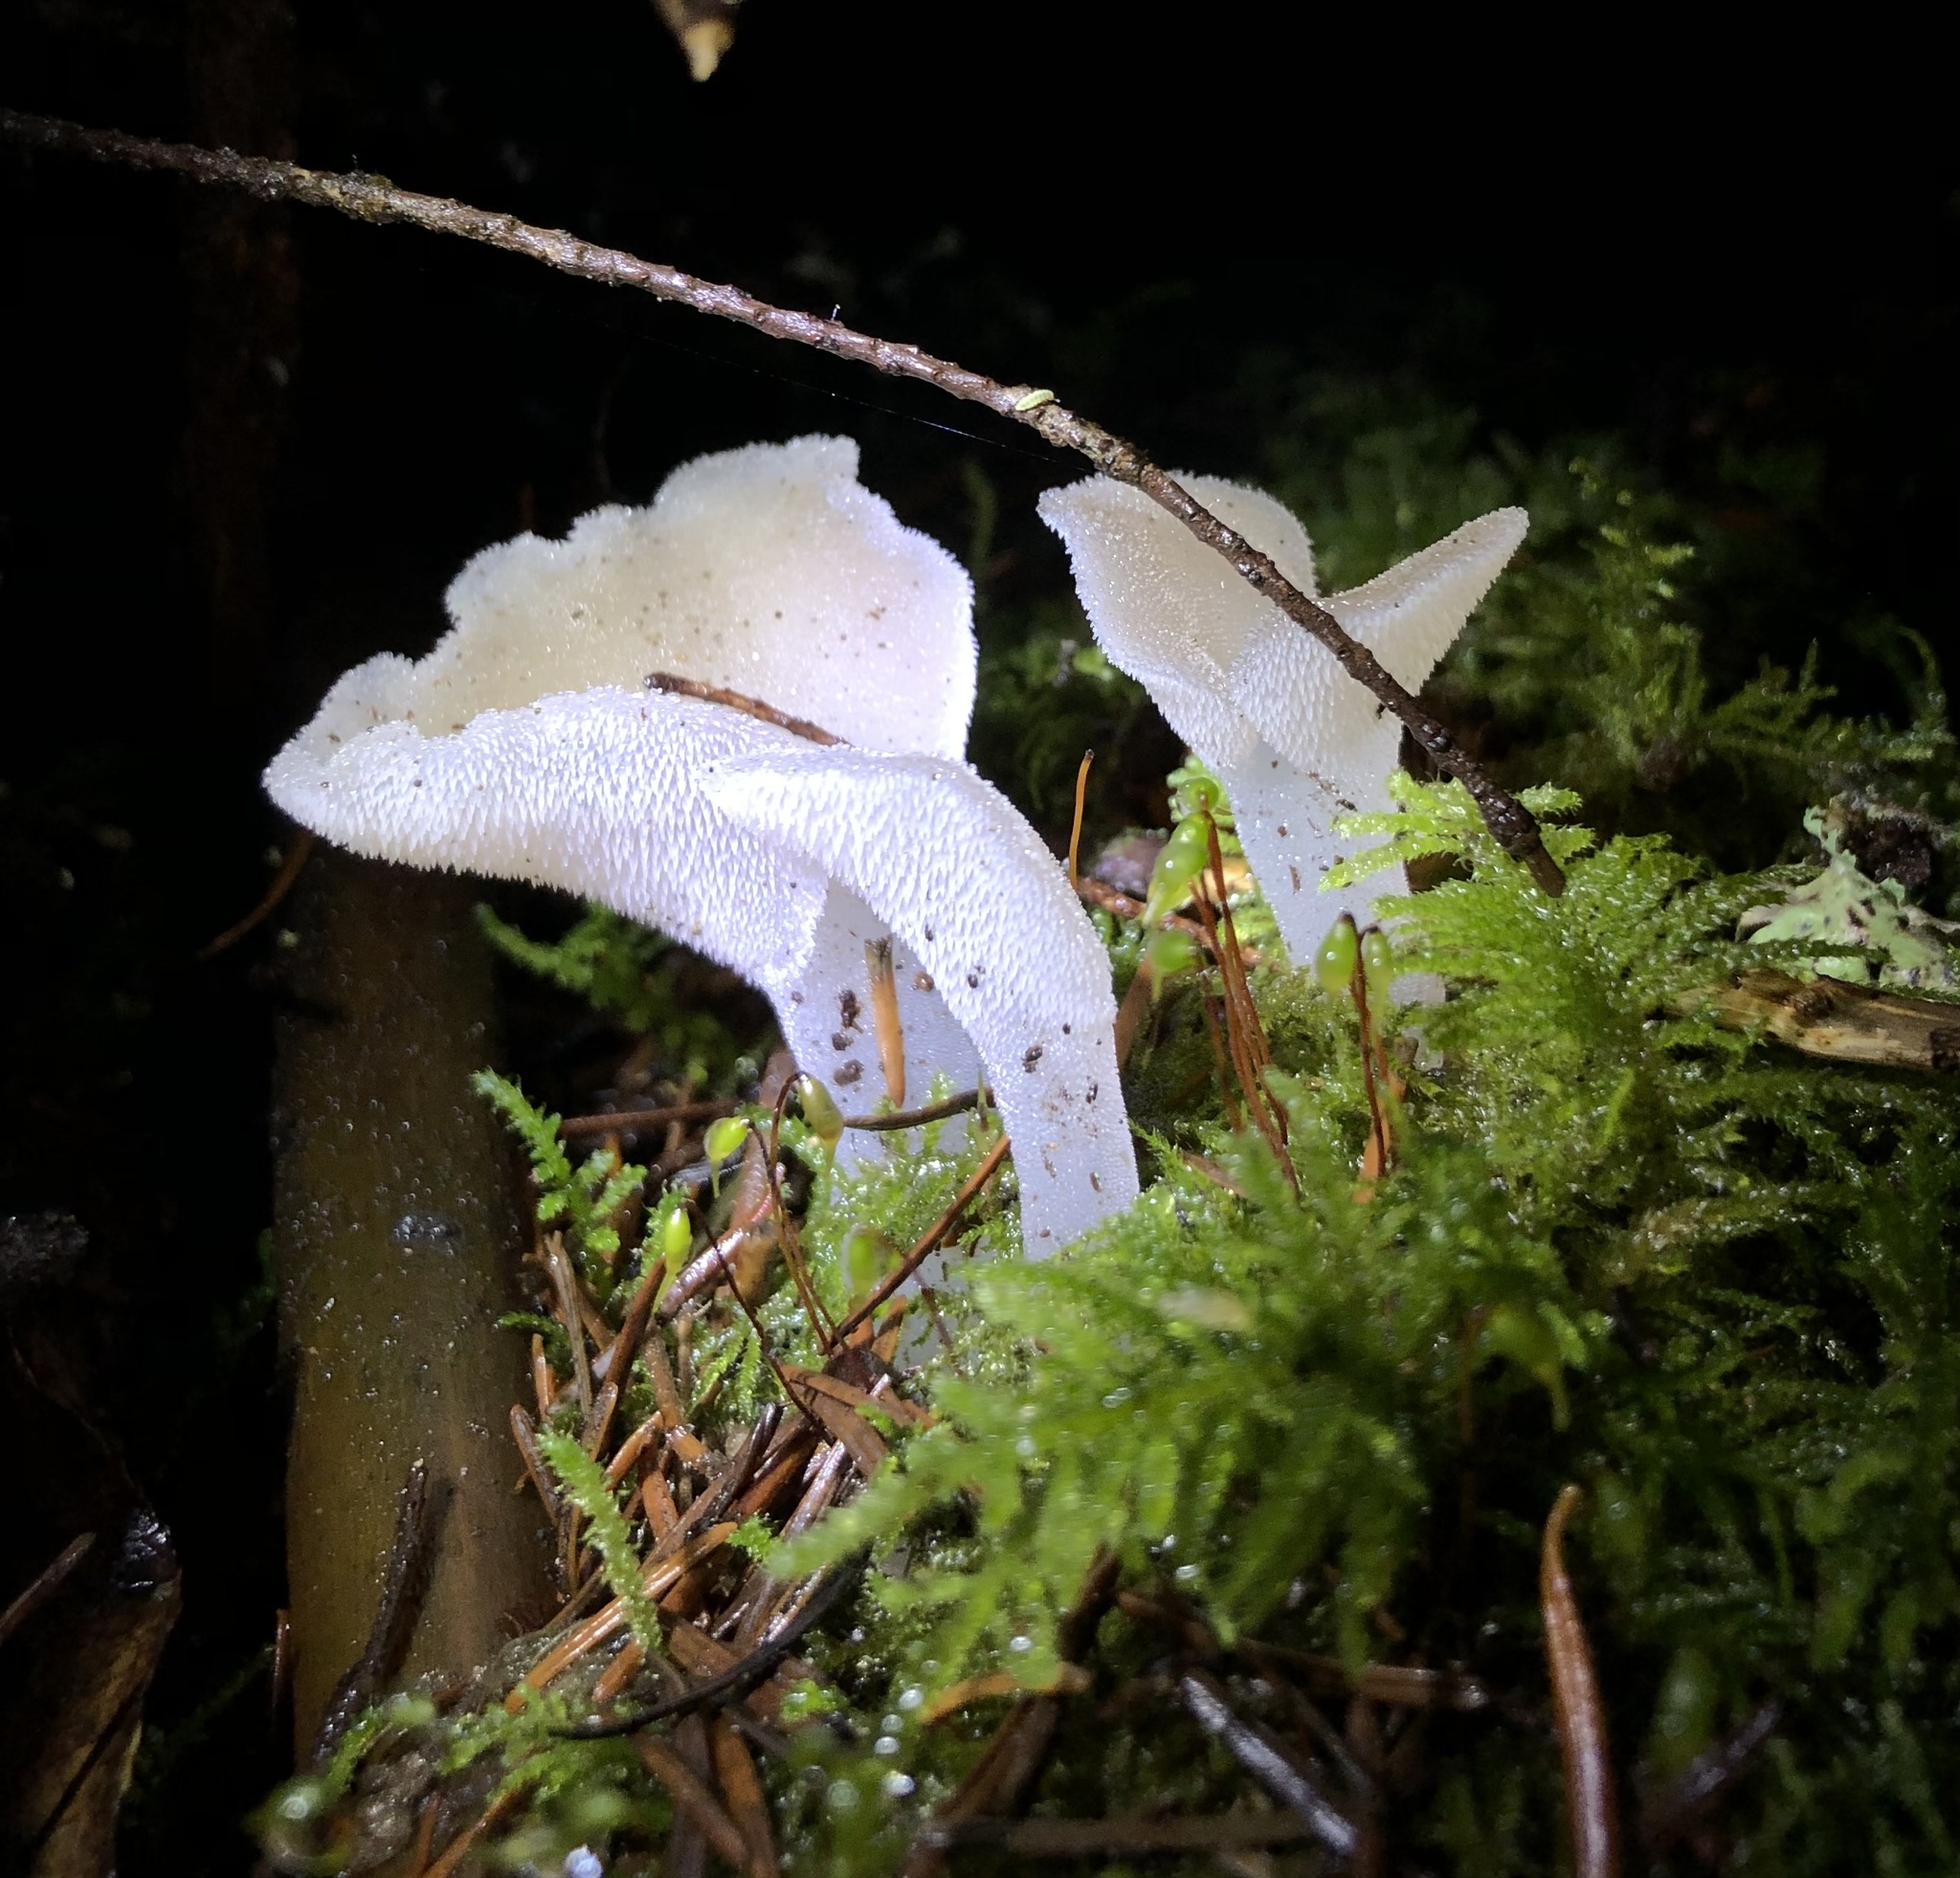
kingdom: Fungi
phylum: Basidiomycota
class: Agaricomycetes
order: Auriculariales
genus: Pseudohydnum
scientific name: Pseudohydnum gelatinosum
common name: Jelly tongue
